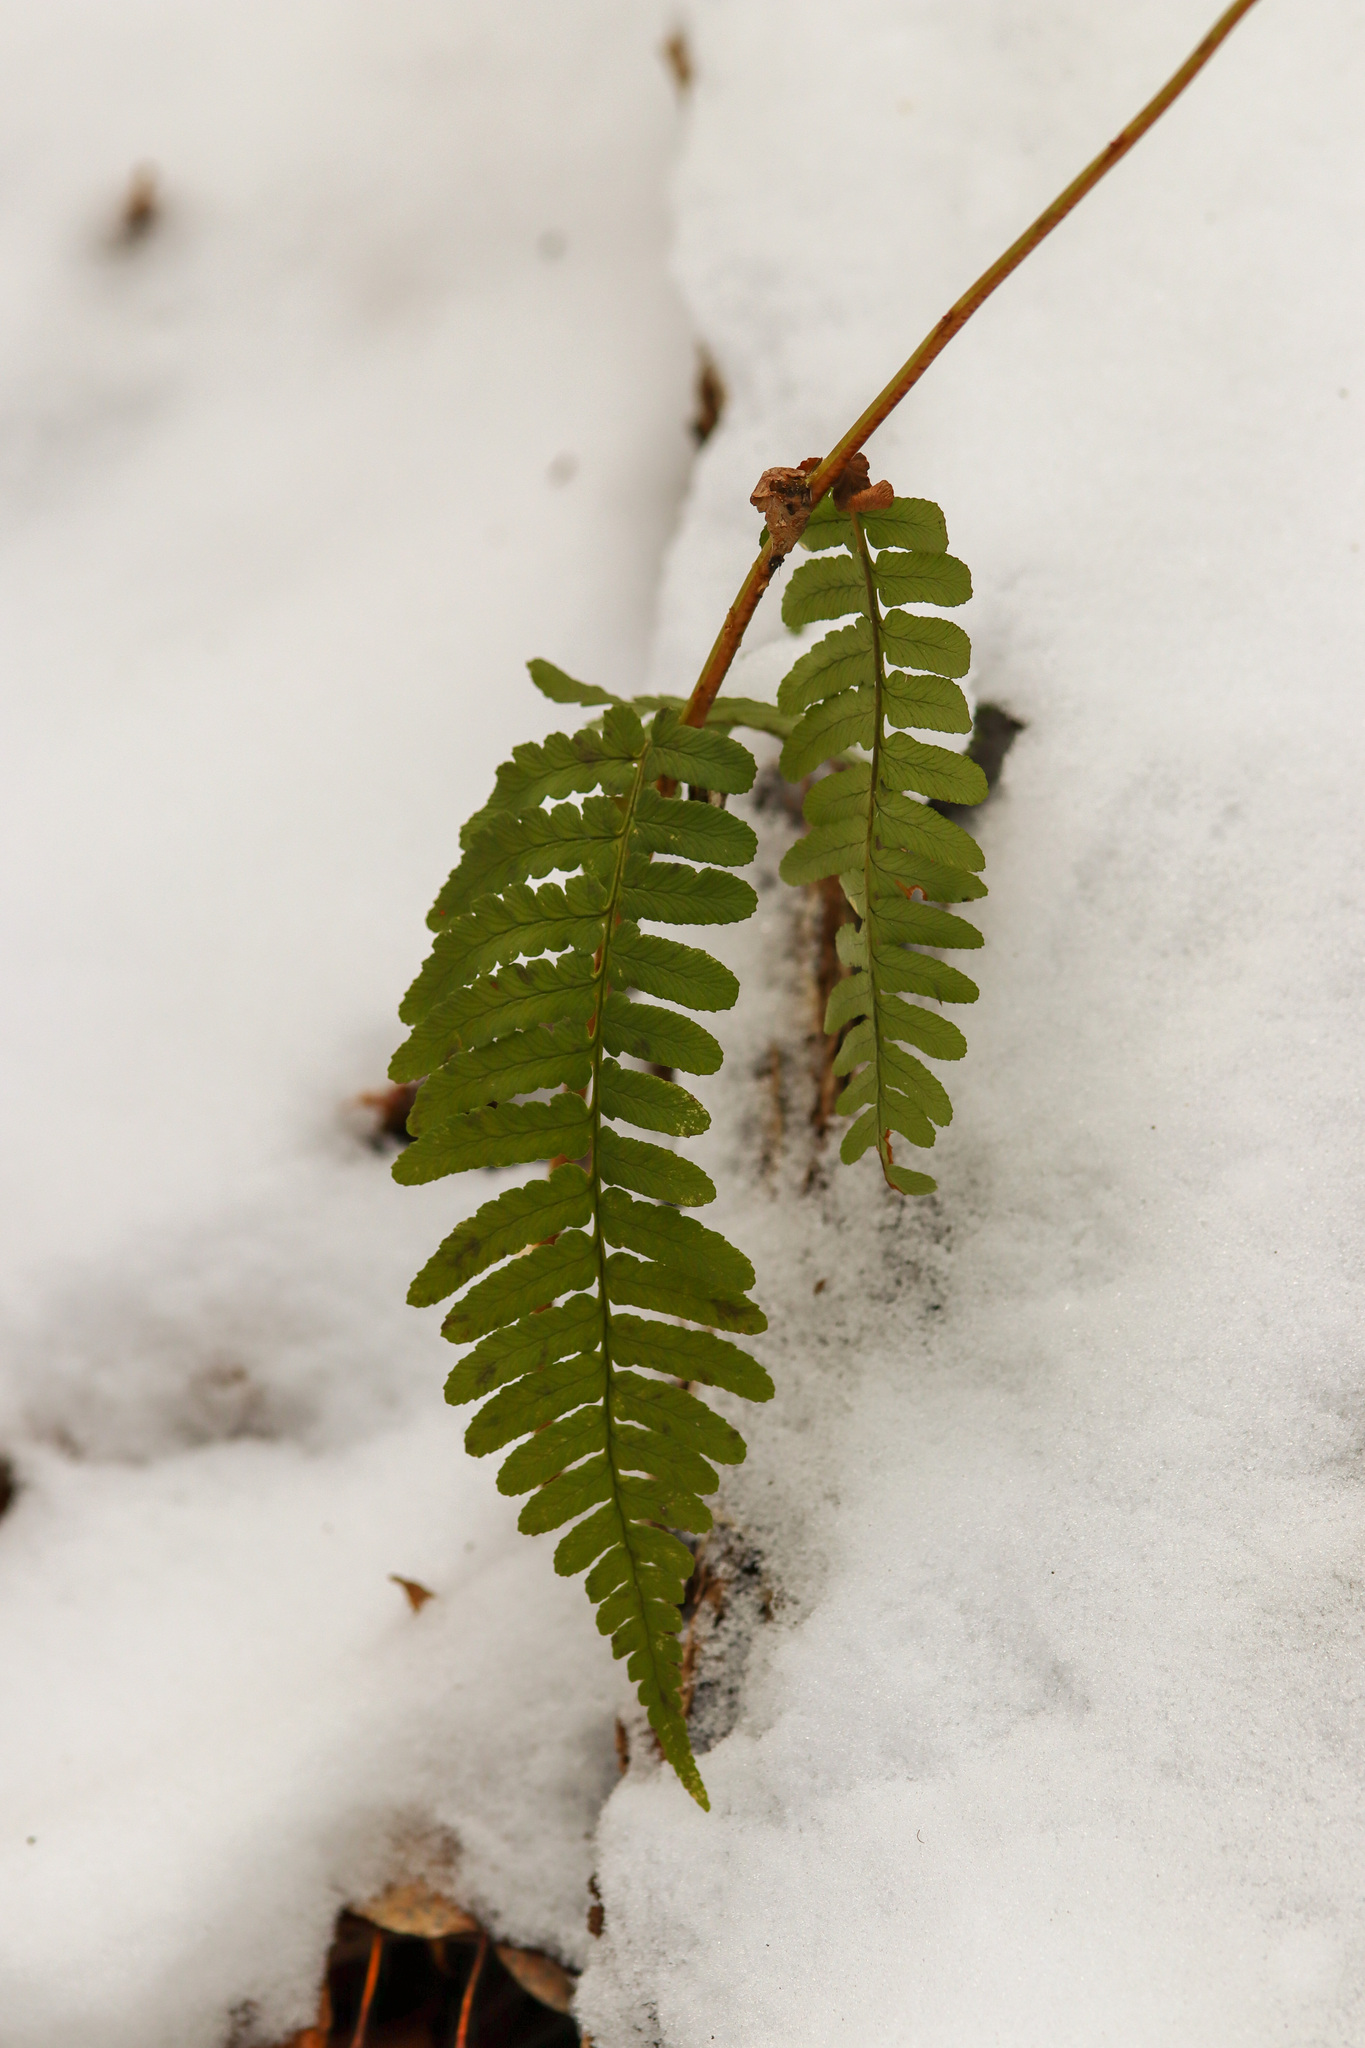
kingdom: Plantae
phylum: Tracheophyta
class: Polypodiopsida
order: Polypodiales
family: Dryopteridaceae
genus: Dryopteris
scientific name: Dryopteris marginalis
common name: Marginal wood fern
